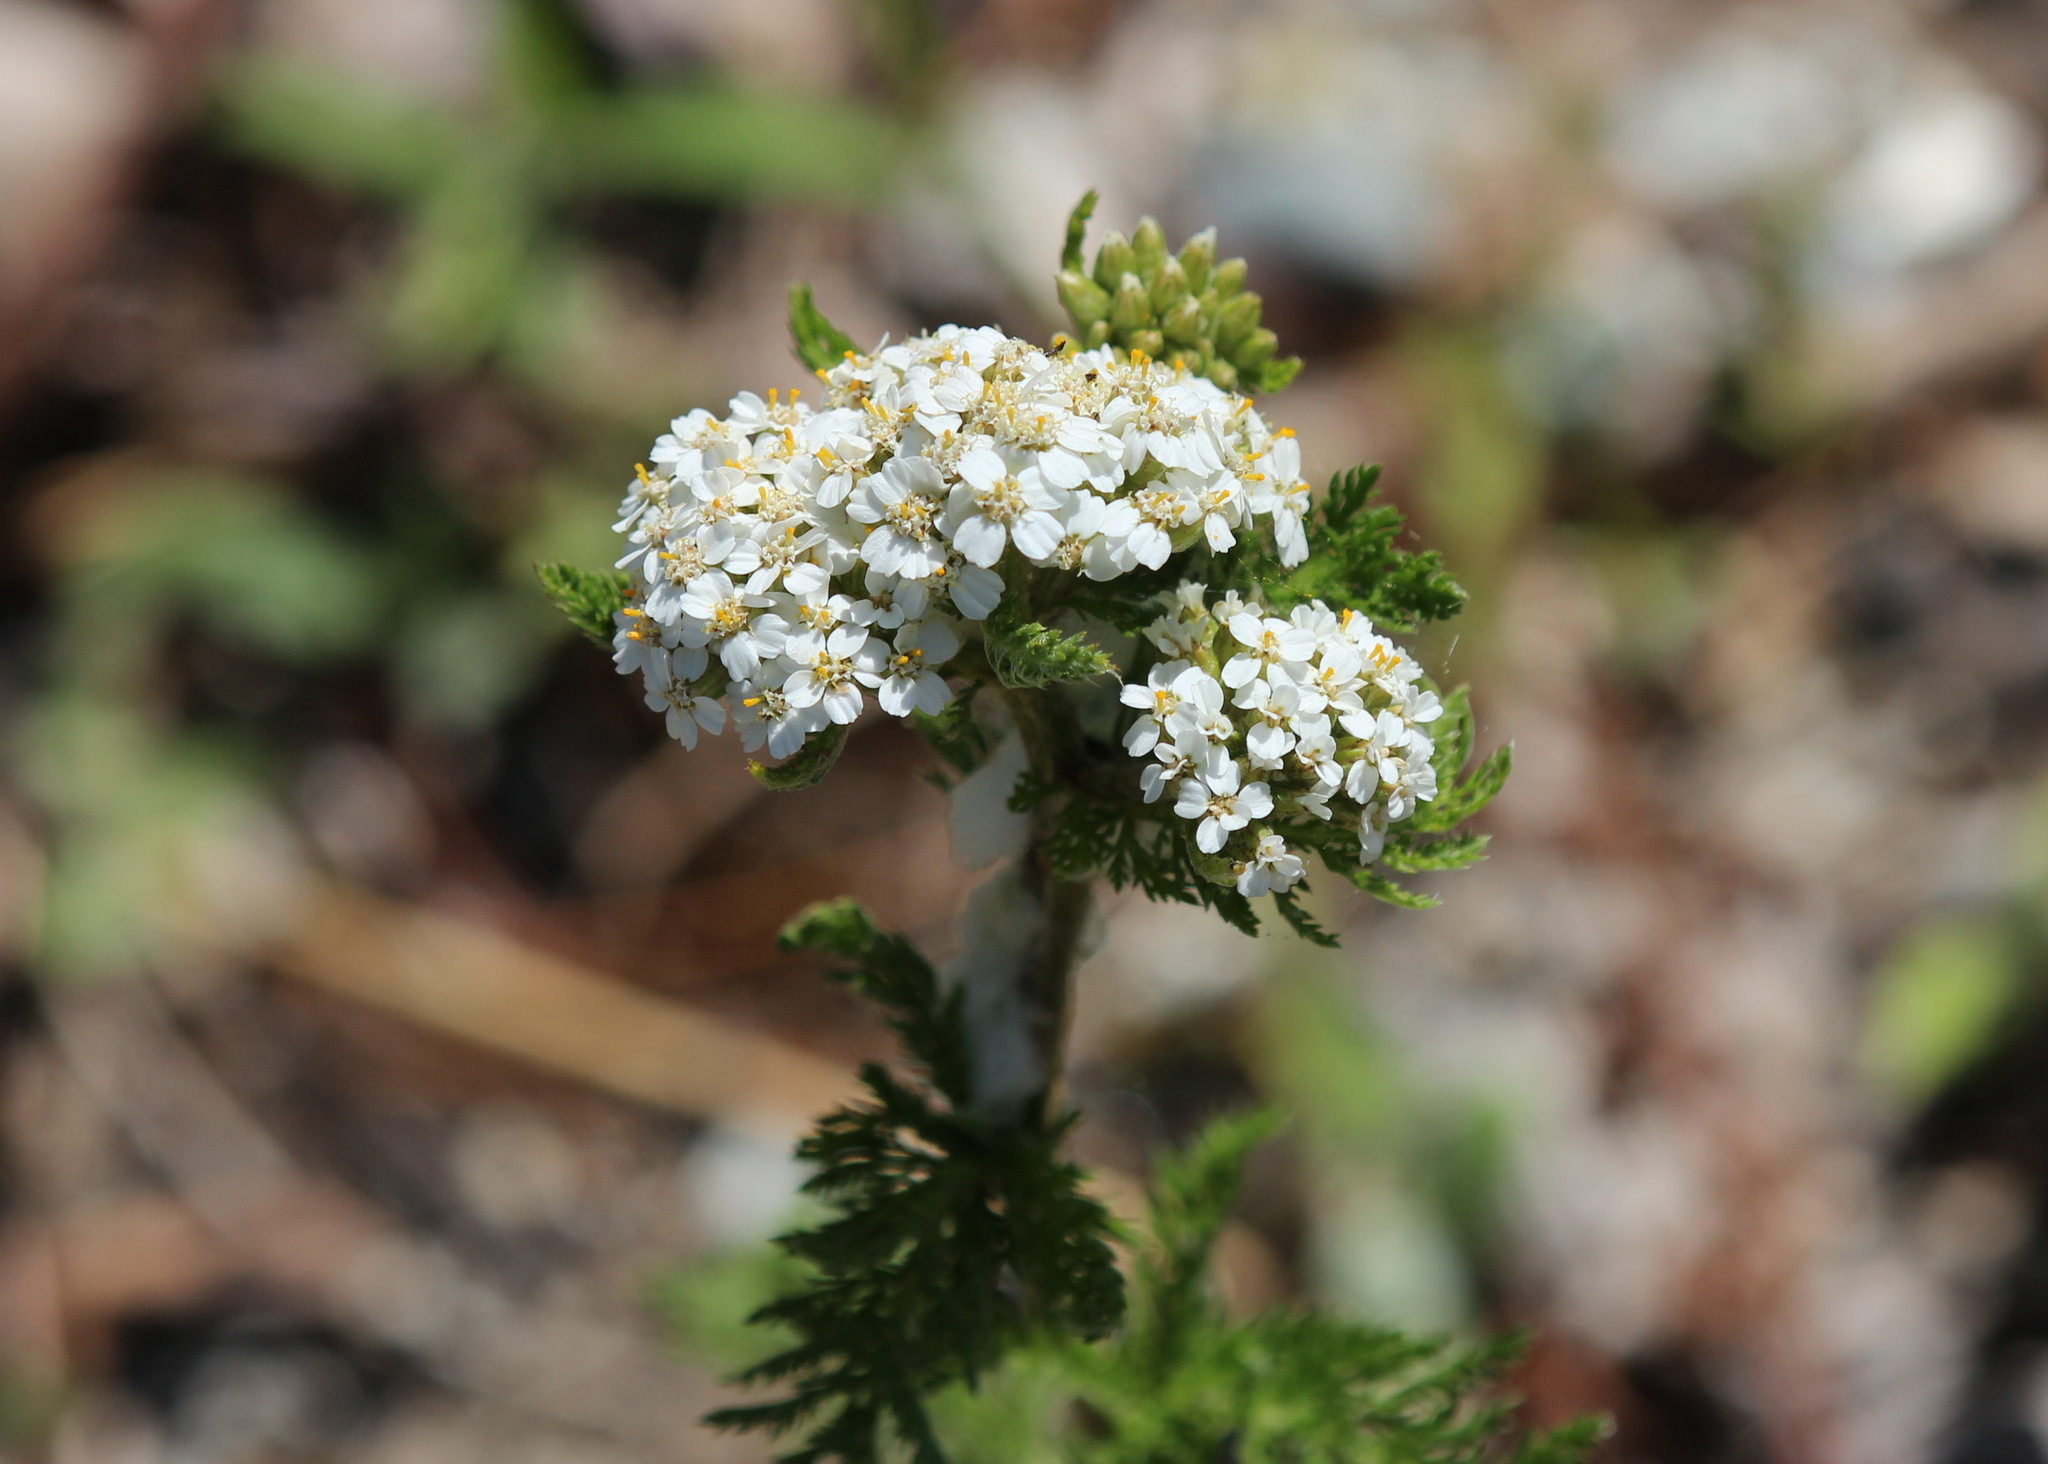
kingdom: Plantae
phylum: Tracheophyta
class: Magnoliopsida
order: Asterales
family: Asteraceae
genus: Achillea
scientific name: Achillea millefolium
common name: Yarrow
